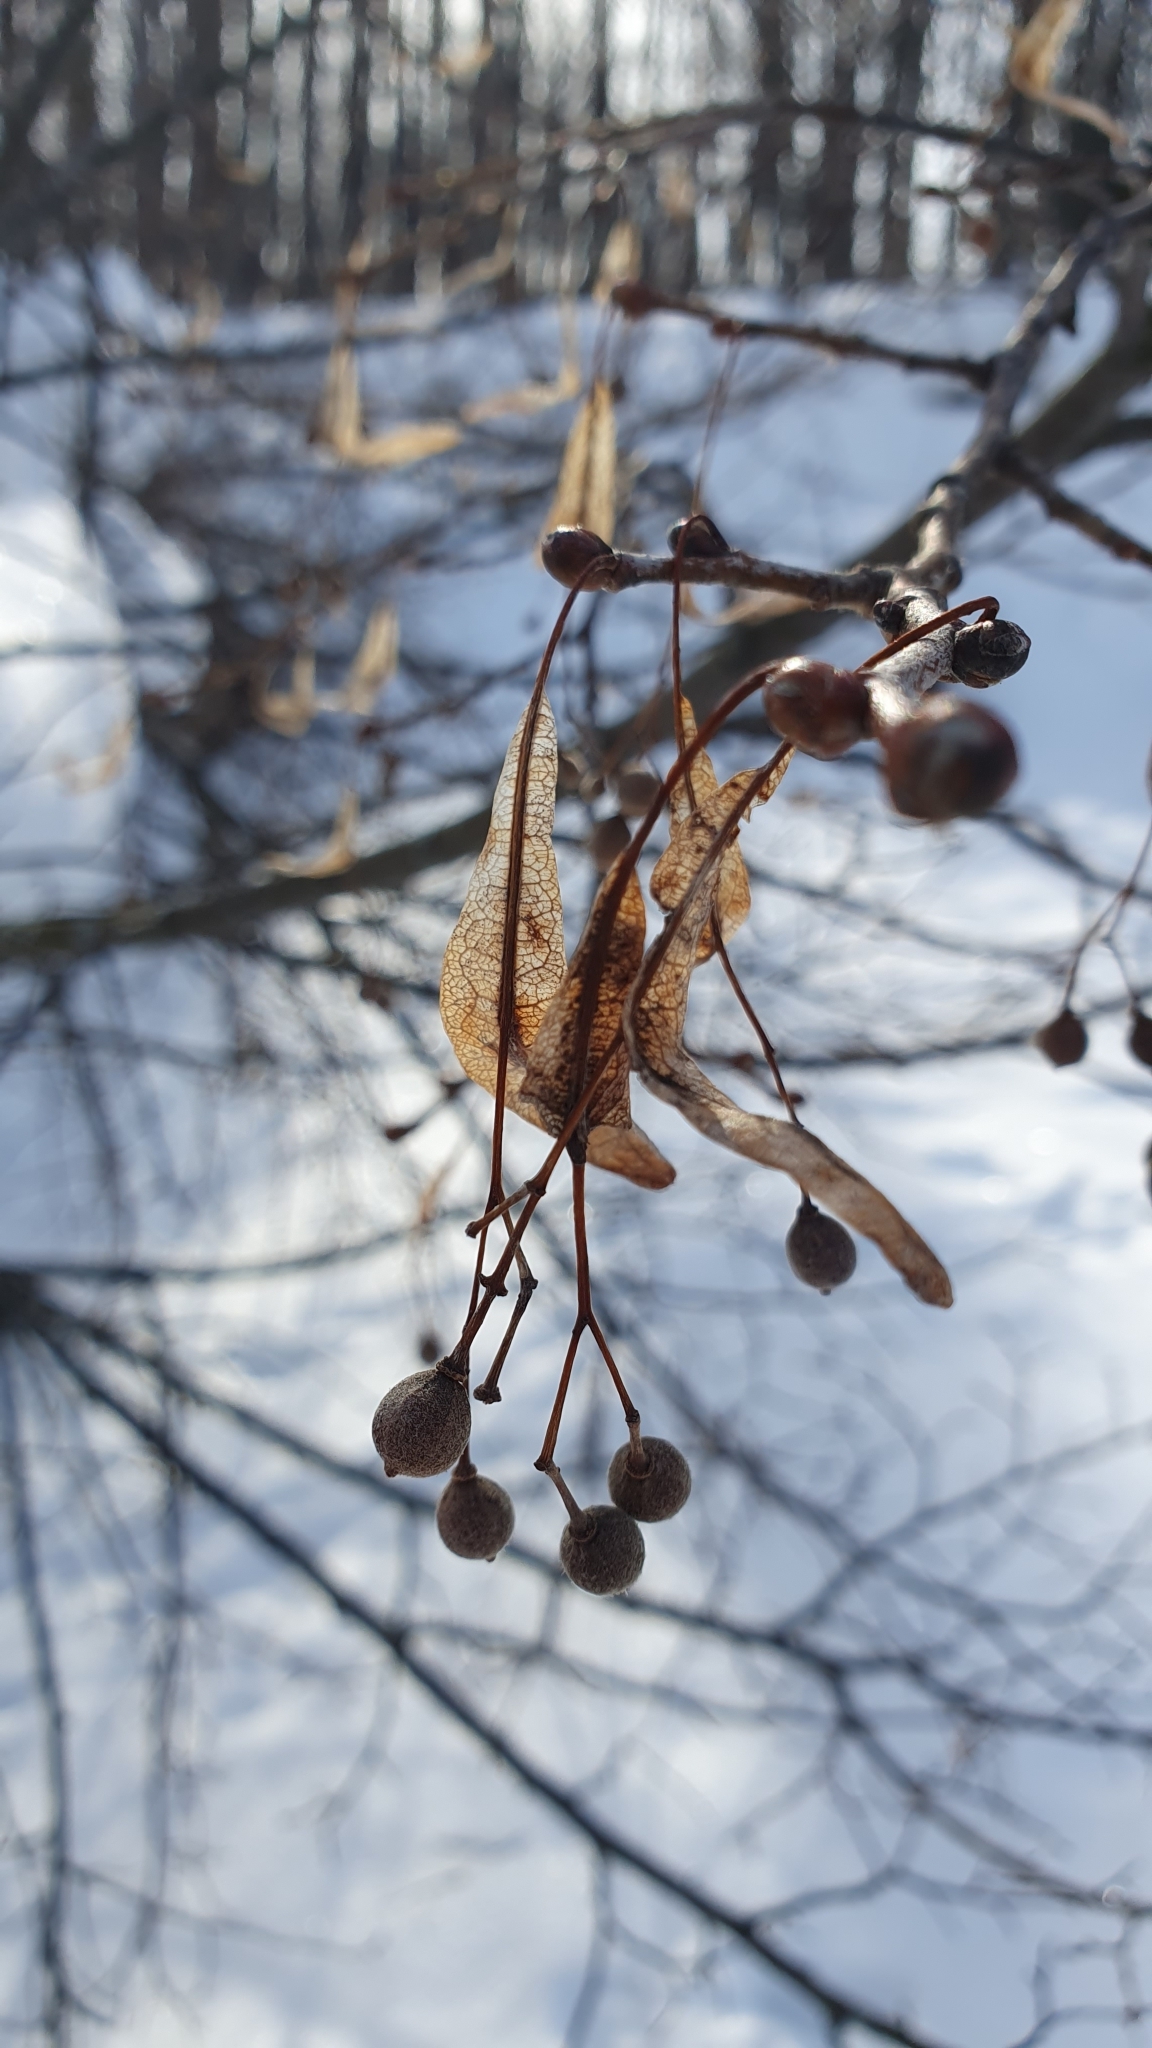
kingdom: Plantae
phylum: Tracheophyta
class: Magnoliopsida
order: Malvales
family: Malvaceae
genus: Tilia
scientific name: Tilia cordata
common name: Small-leaved lime
